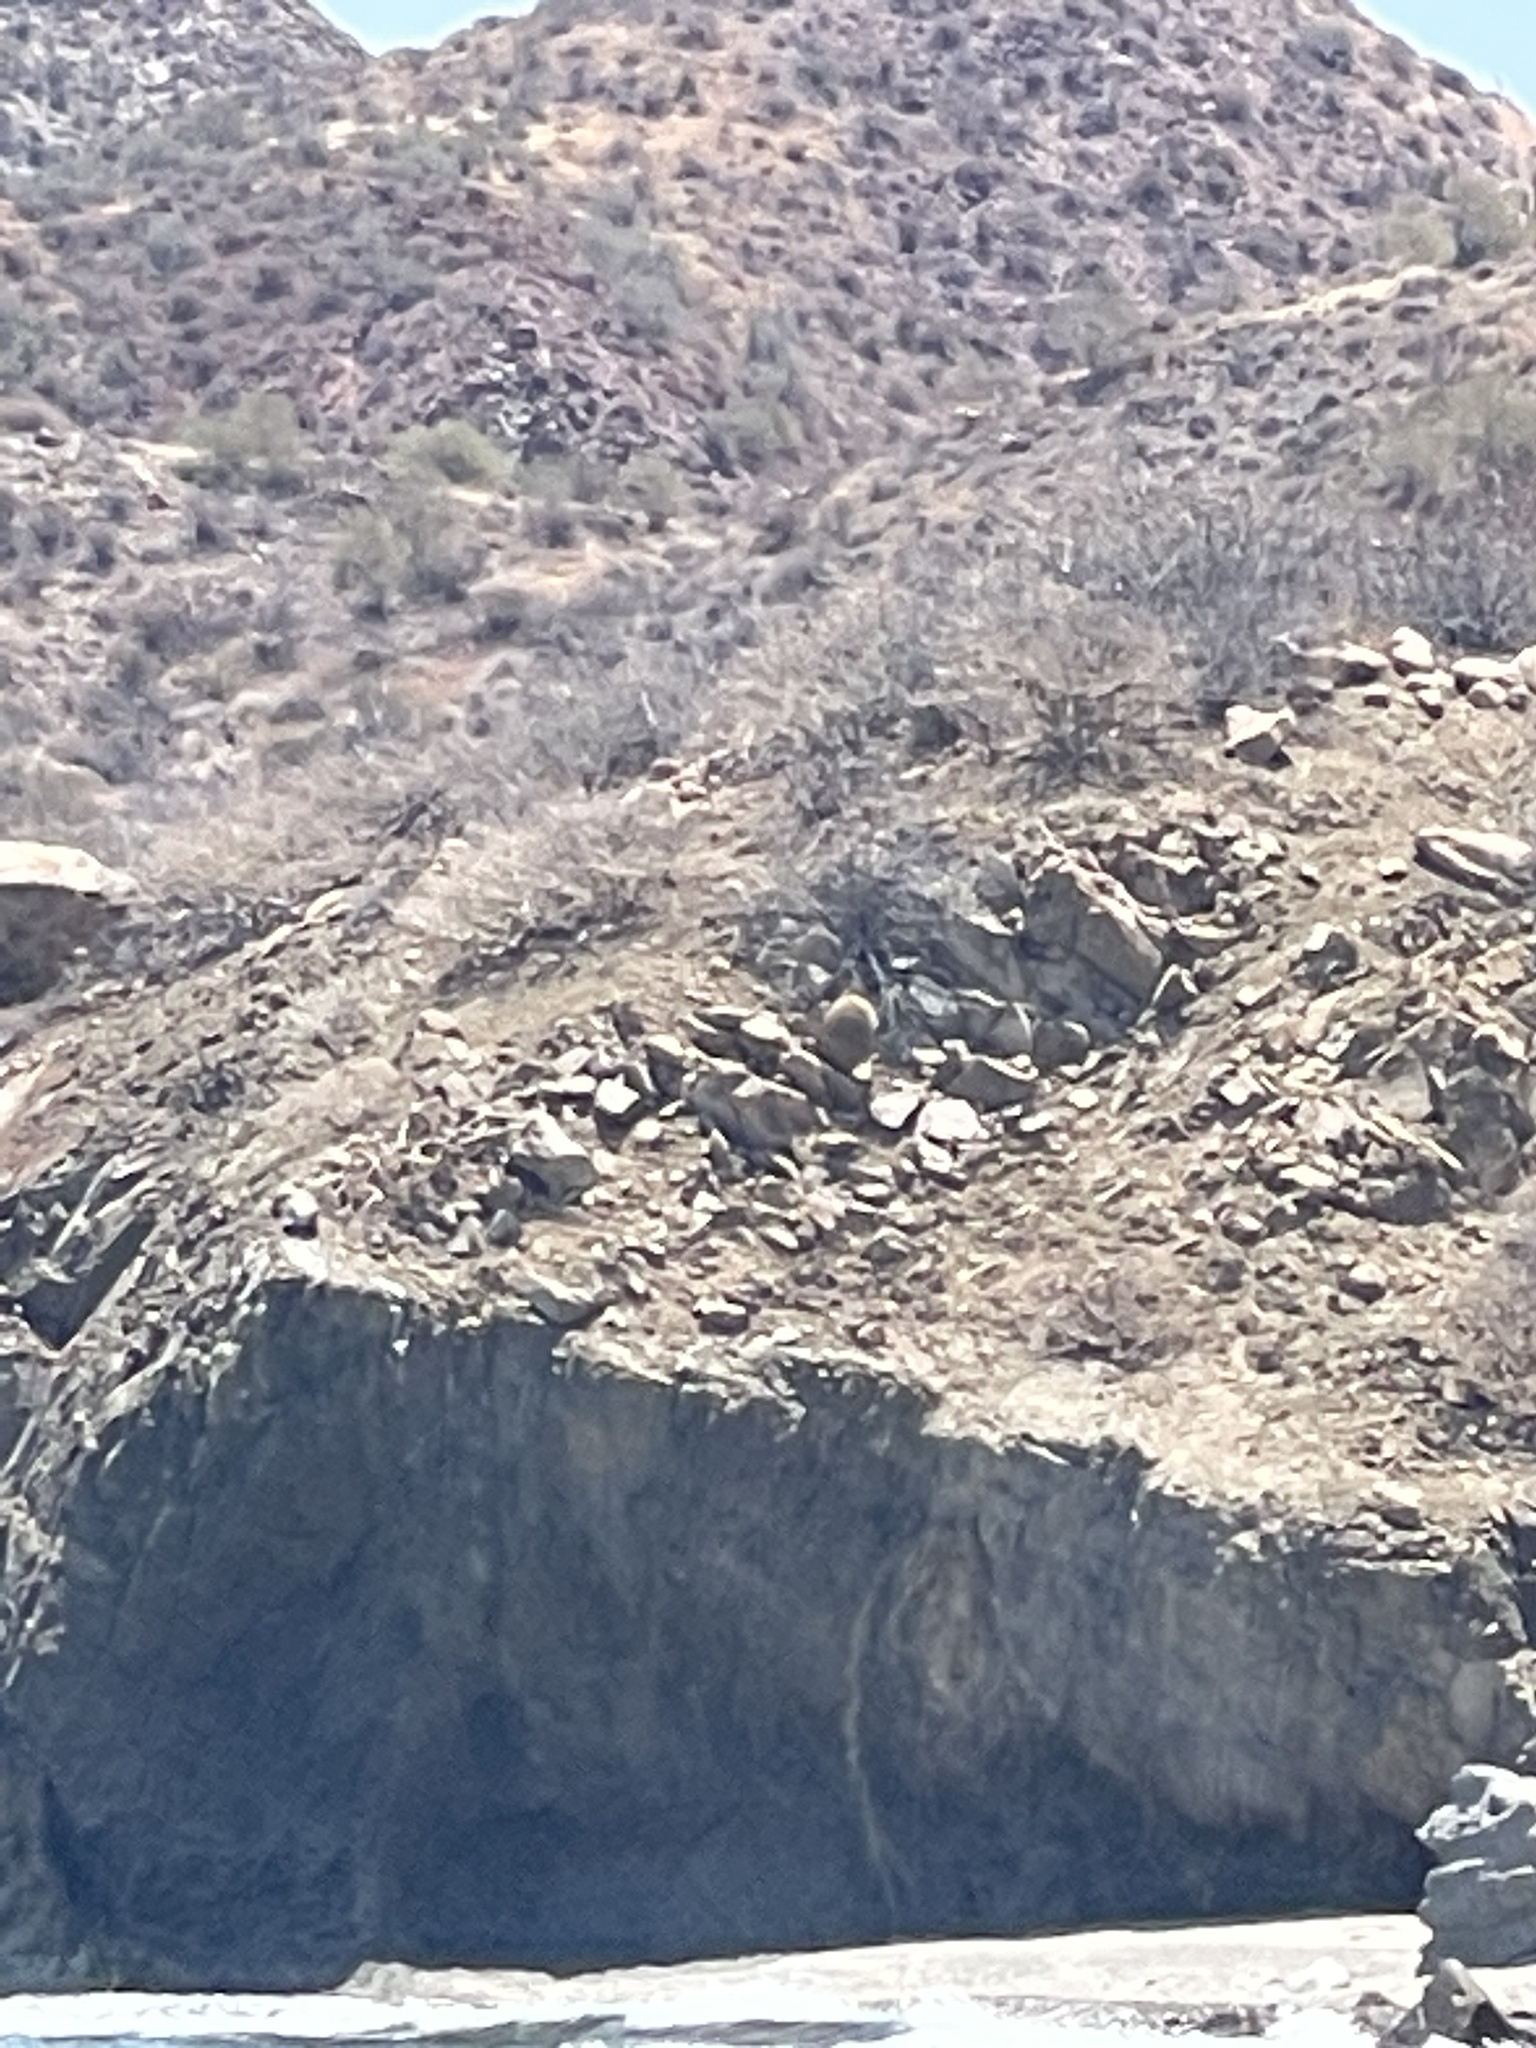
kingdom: Plantae
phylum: Tracheophyta
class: Magnoliopsida
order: Caryophyllales
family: Cactaceae
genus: Ferocactus
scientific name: Ferocactus diguetii
